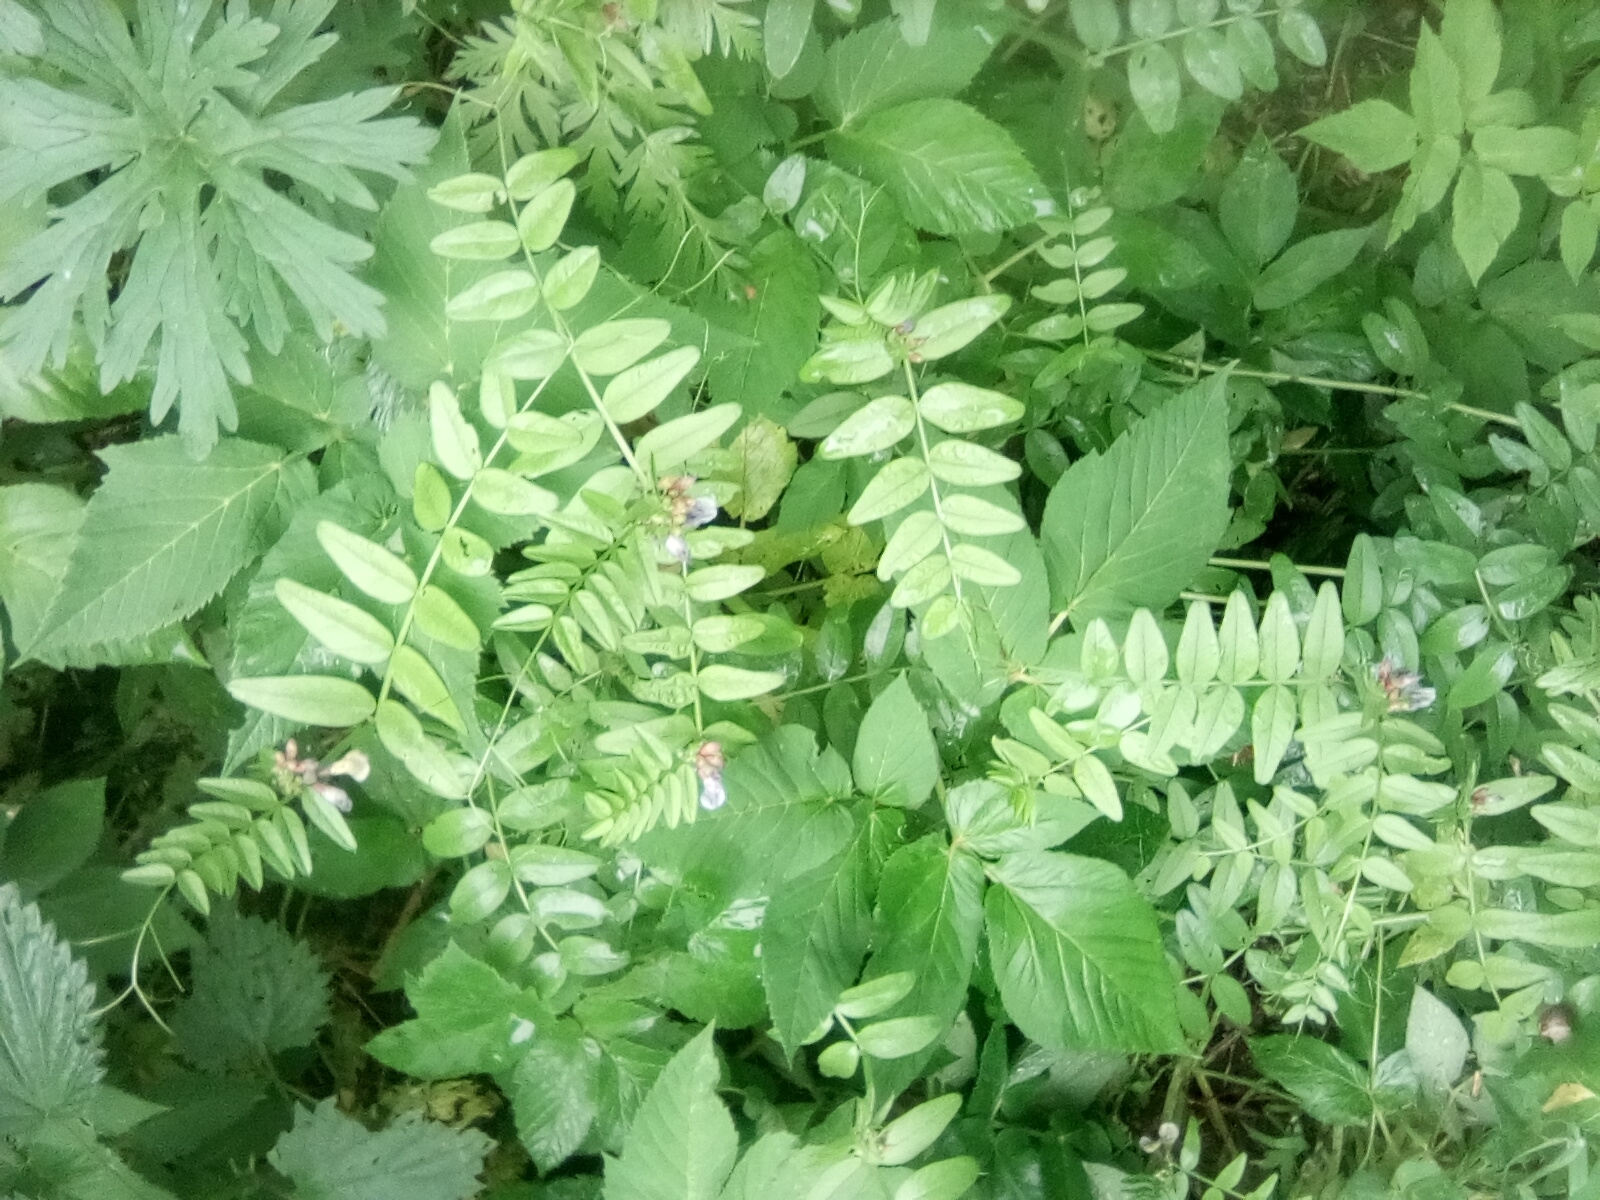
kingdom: Plantae
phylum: Tracheophyta
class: Magnoliopsida
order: Fabales
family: Fabaceae
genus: Vicia
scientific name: Vicia sepium
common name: Bush vetch
